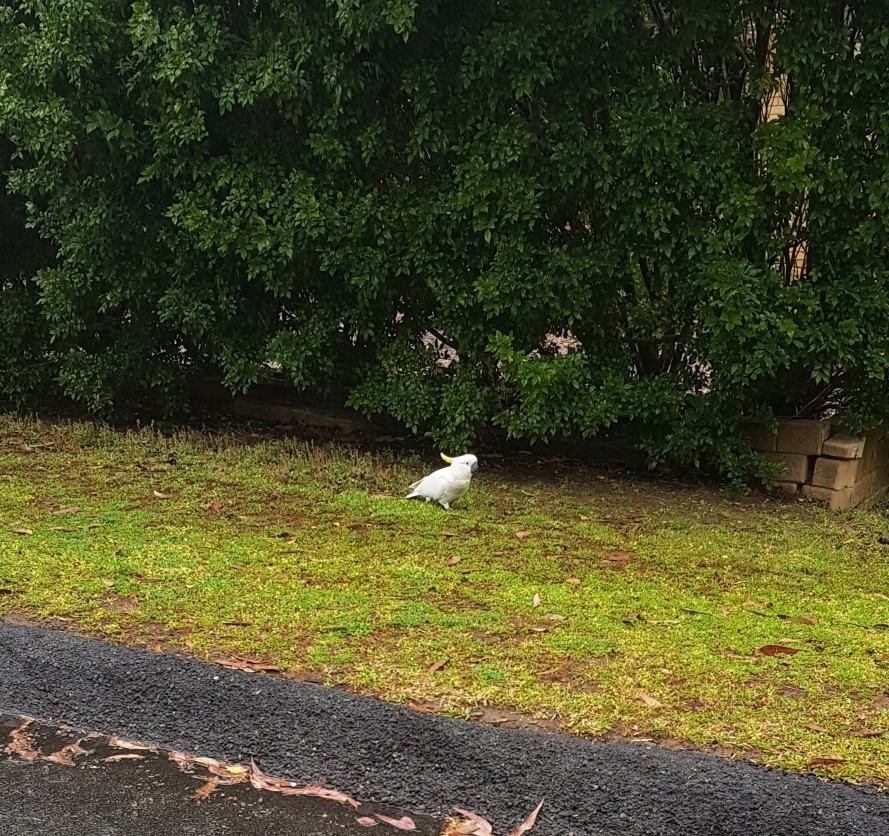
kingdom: Animalia
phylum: Chordata
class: Aves
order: Psittaciformes
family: Psittacidae
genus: Cacatua
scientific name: Cacatua galerita
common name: Sulphur-crested cockatoo
